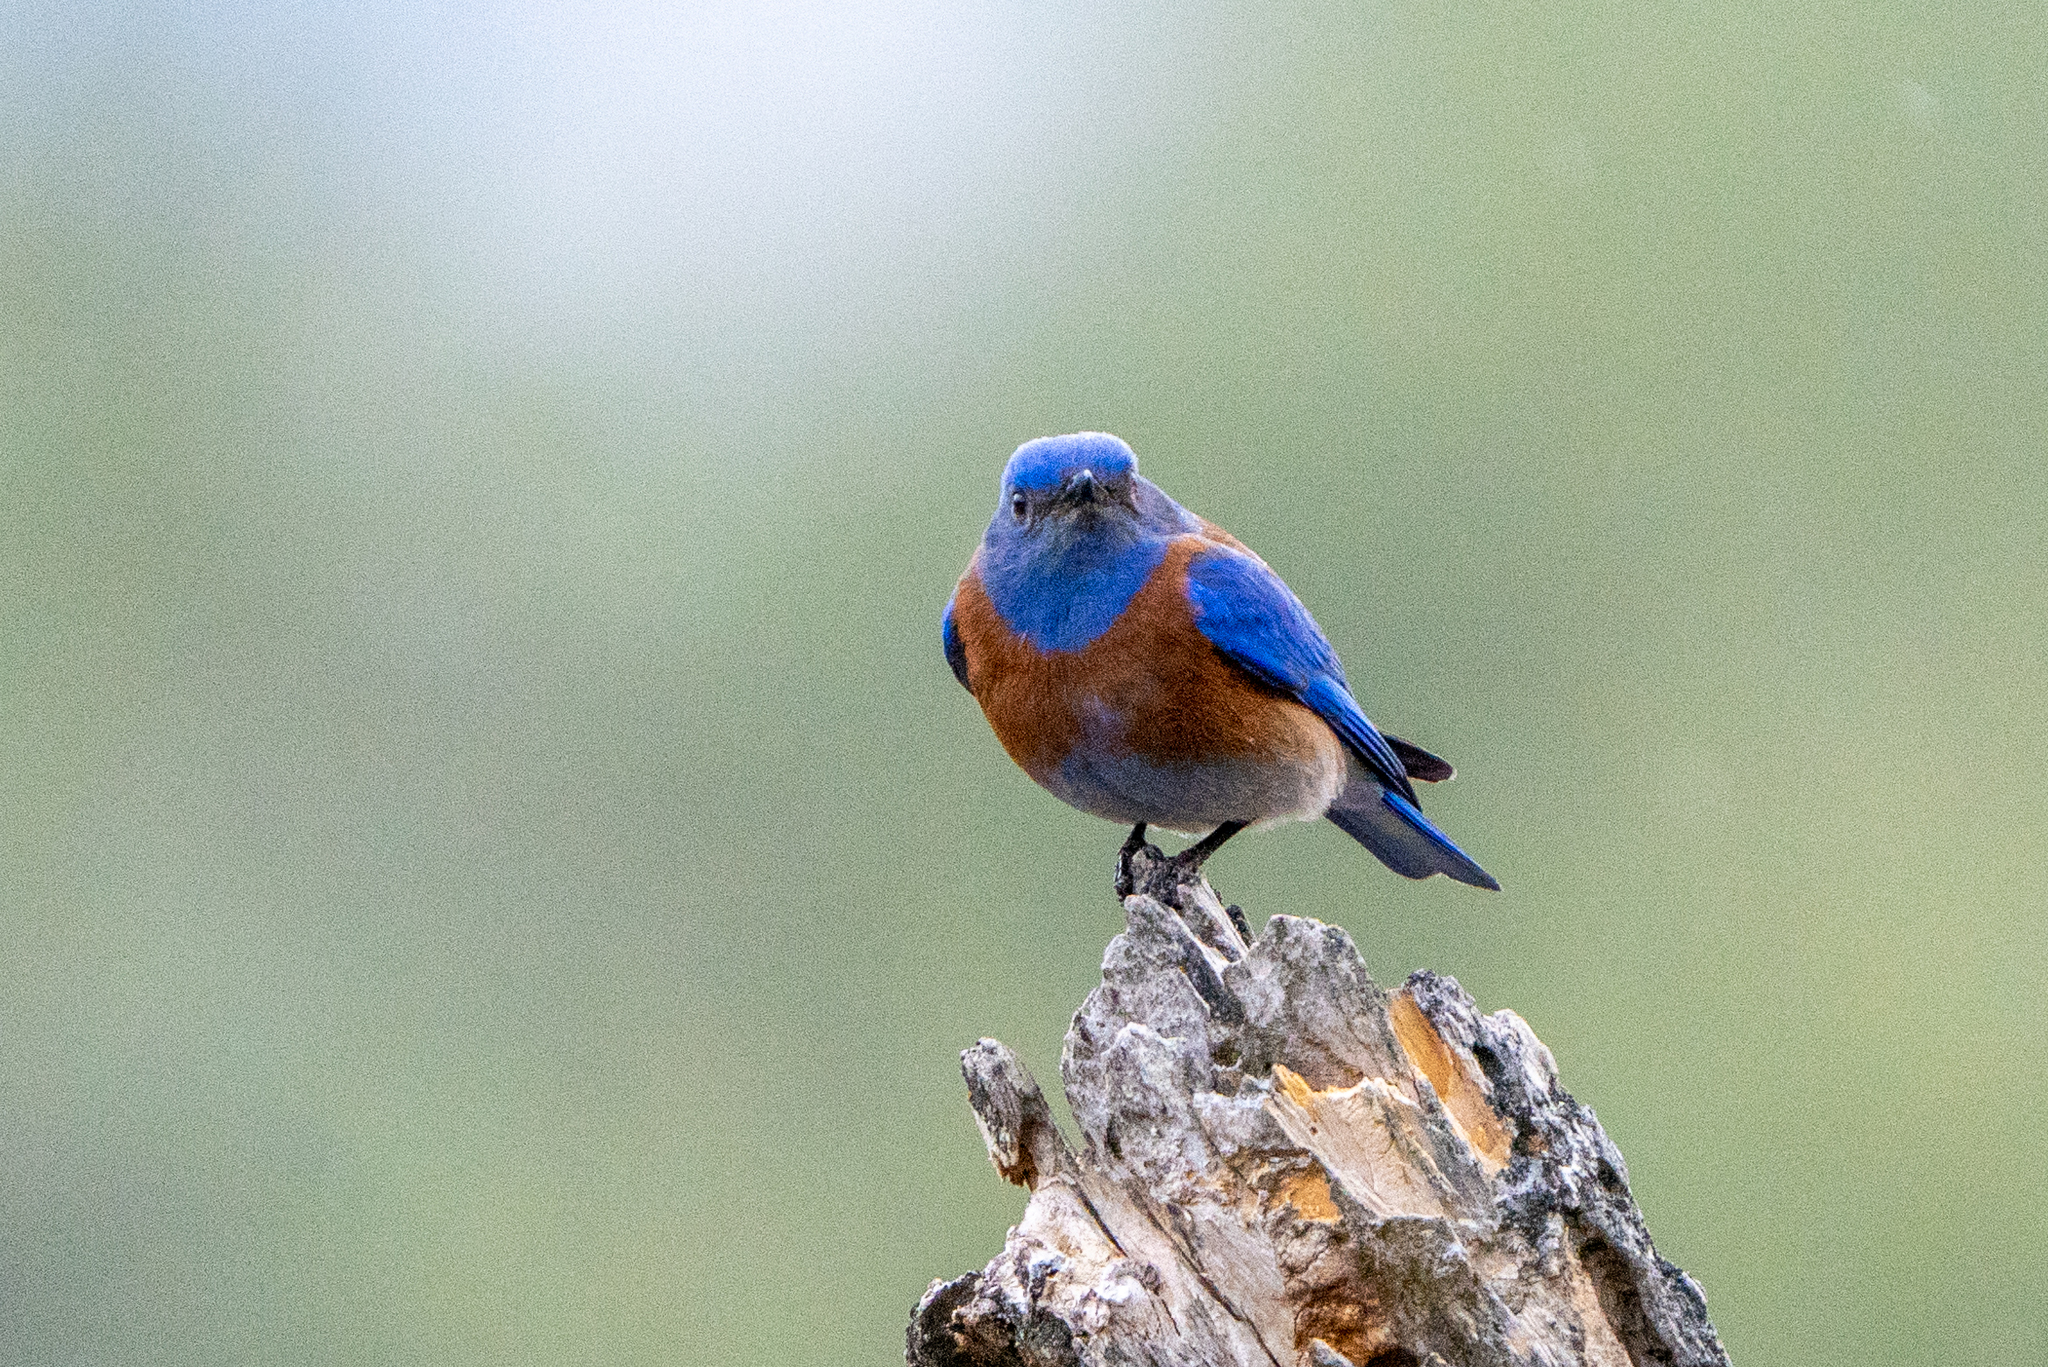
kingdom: Animalia
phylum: Chordata
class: Aves
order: Passeriformes
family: Turdidae
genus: Sialia
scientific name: Sialia mexicana
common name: Western bluebird
